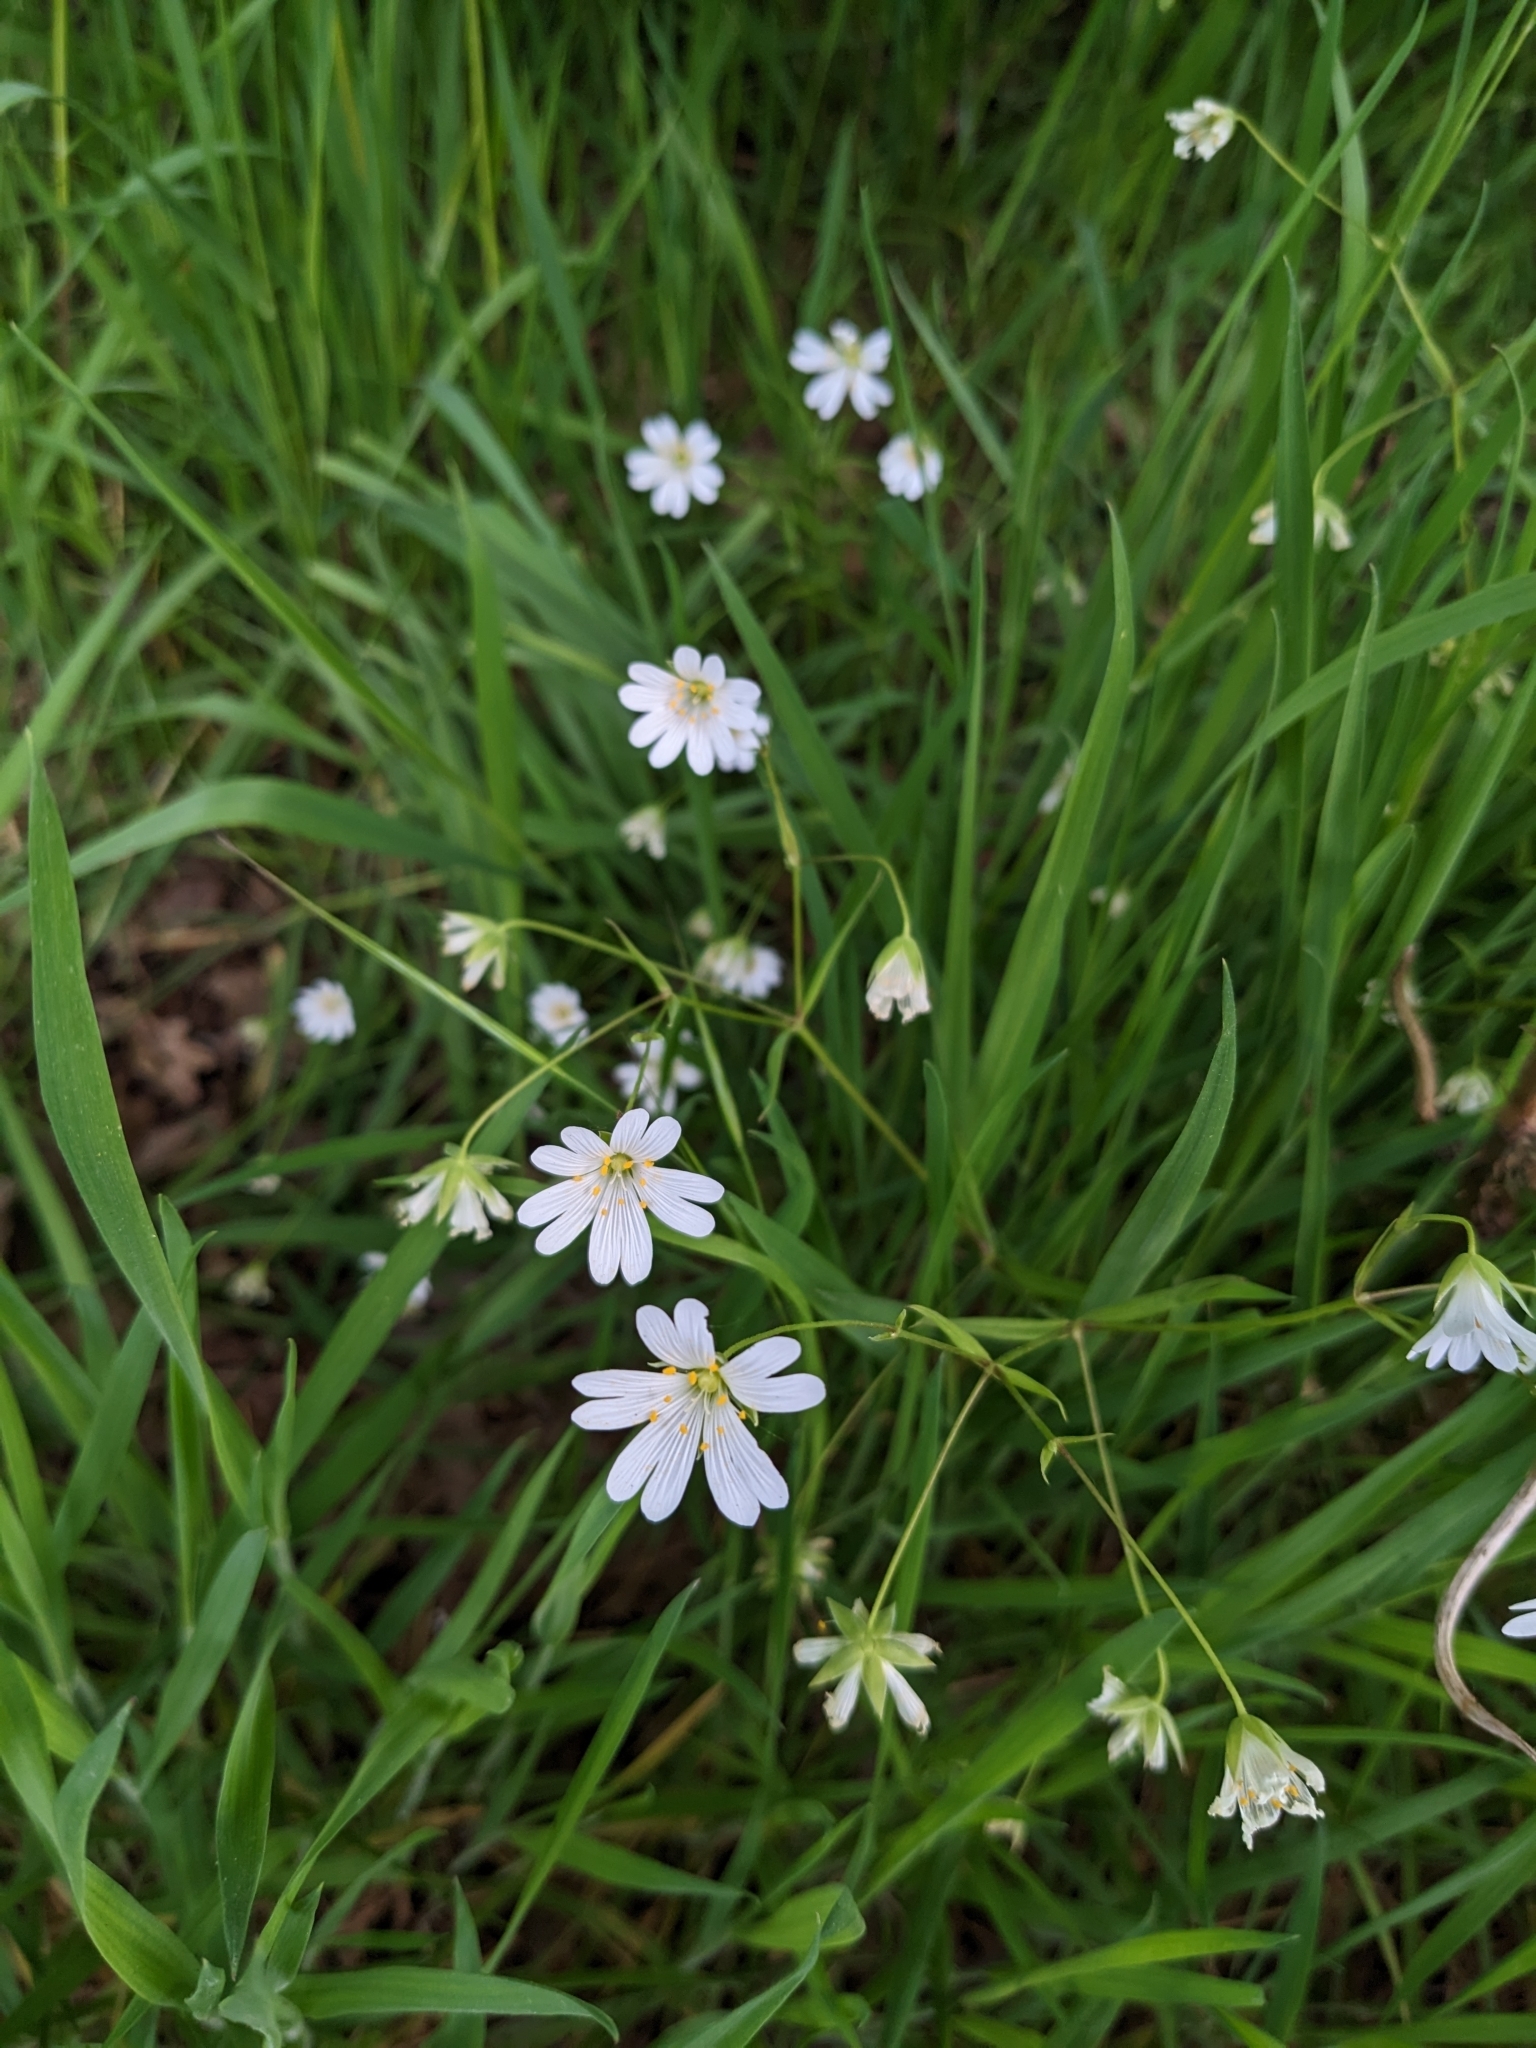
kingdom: Plantae
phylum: Tracheophyta
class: Magnoliopsida
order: Caryophyllales
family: Caryophyllaceae
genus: Rabelera
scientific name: Rabelera holostea
